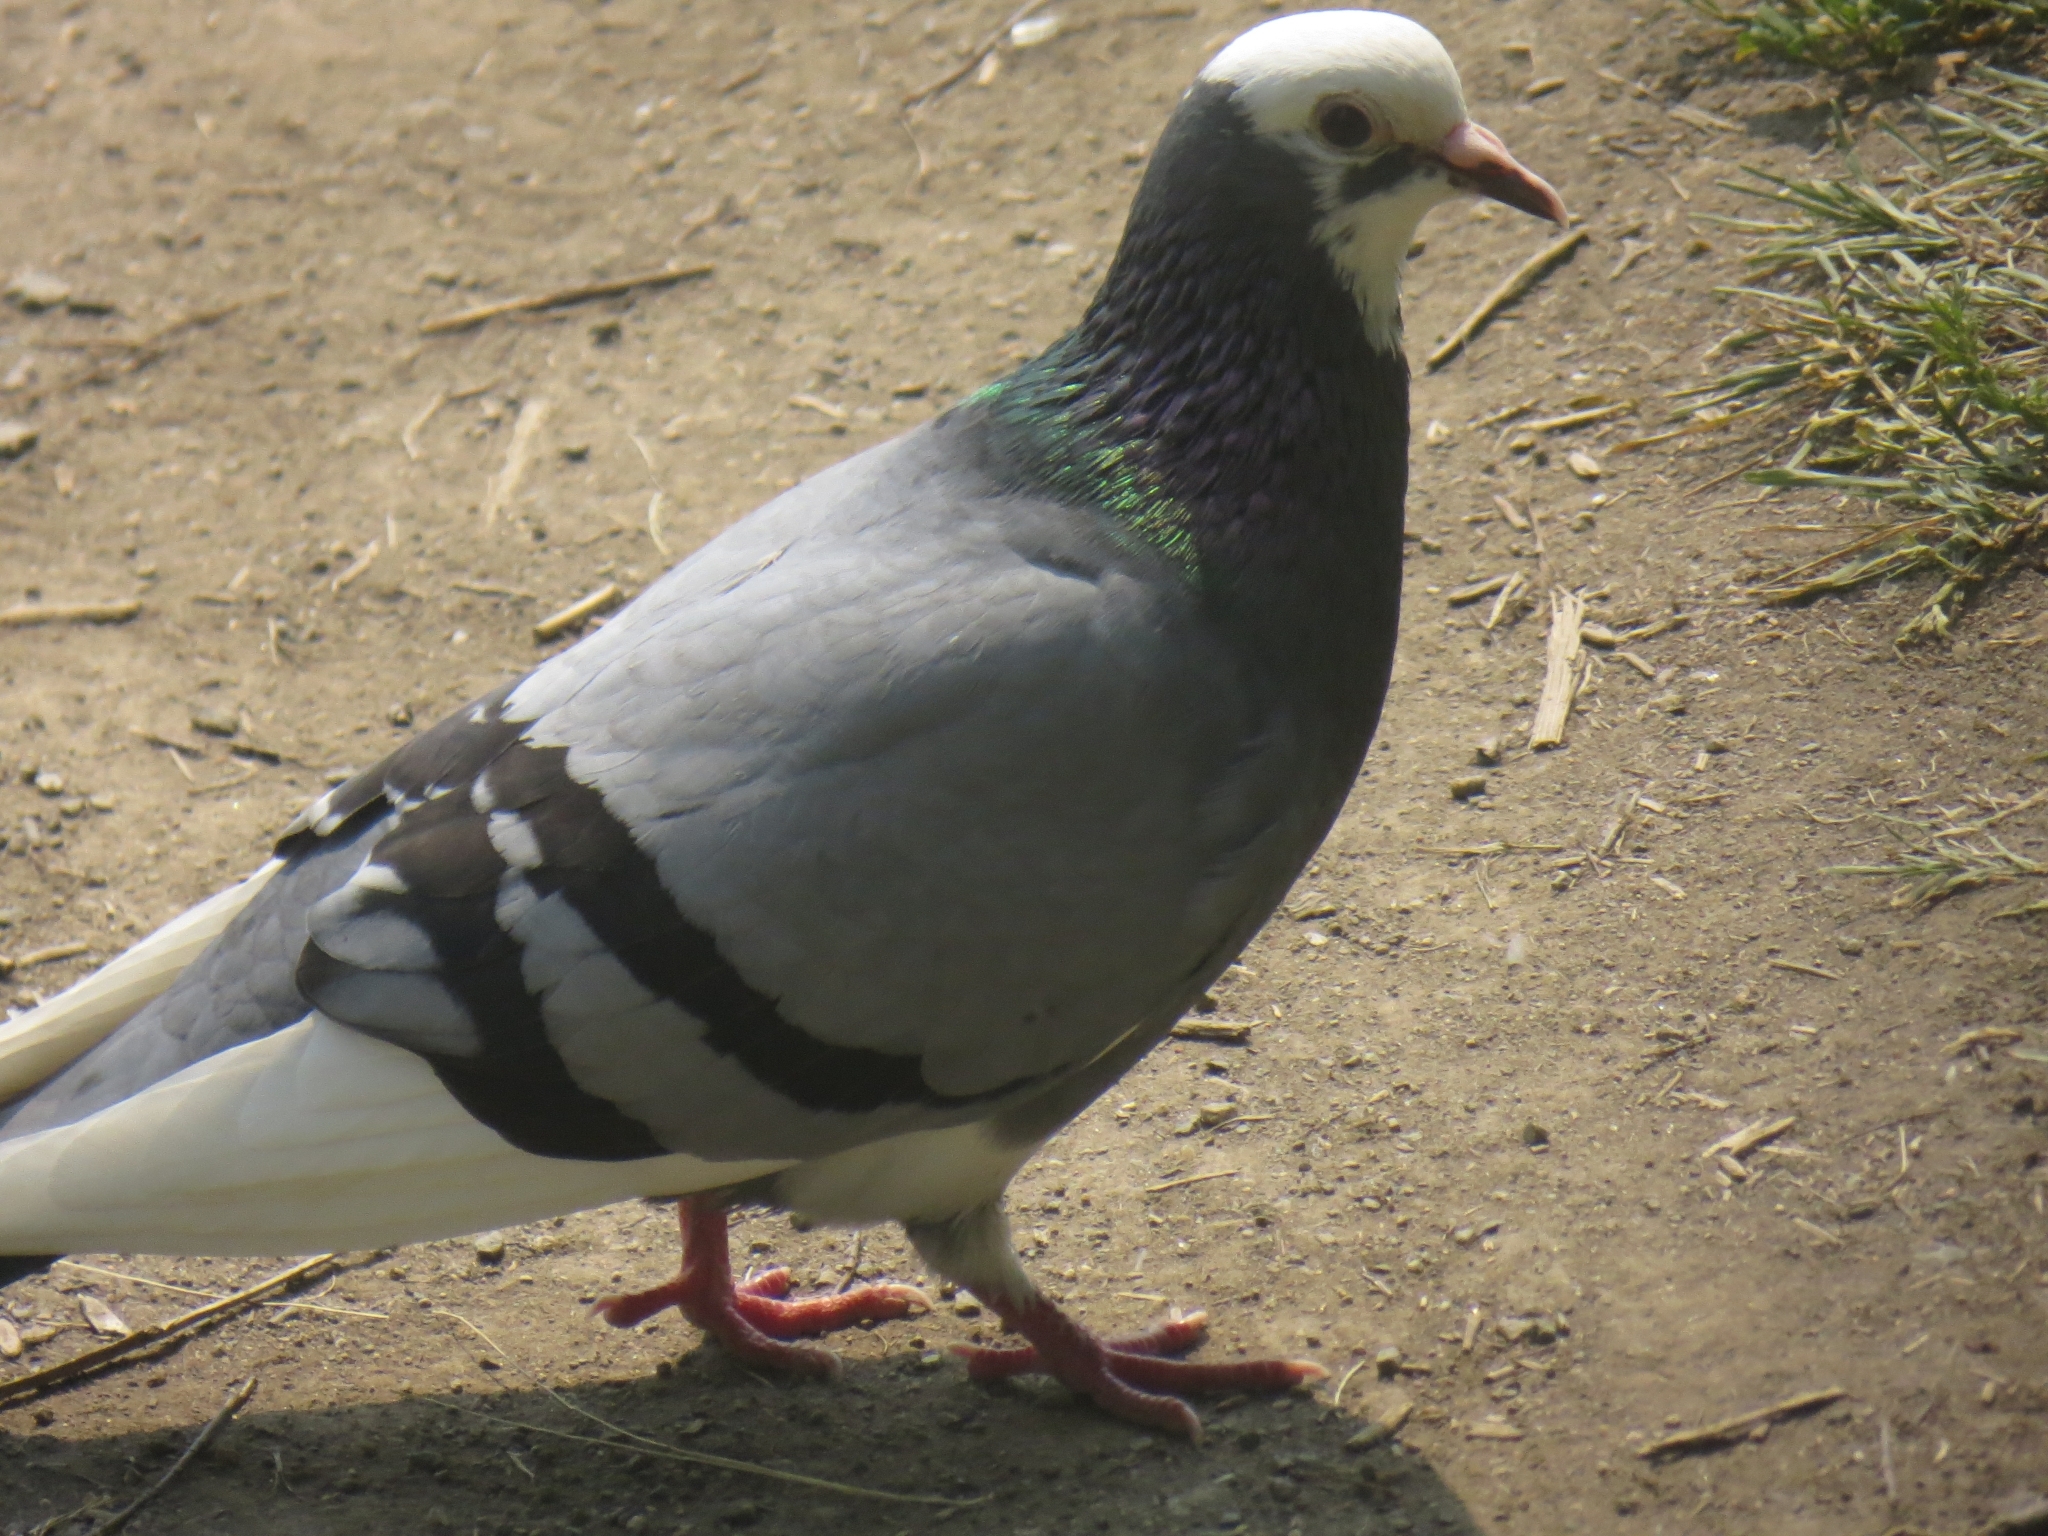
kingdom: Animalia
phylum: Chordata
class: Aves
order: Columbiformes
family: Columbidae
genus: Columba
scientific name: Columba livia
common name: Rock pigeon
